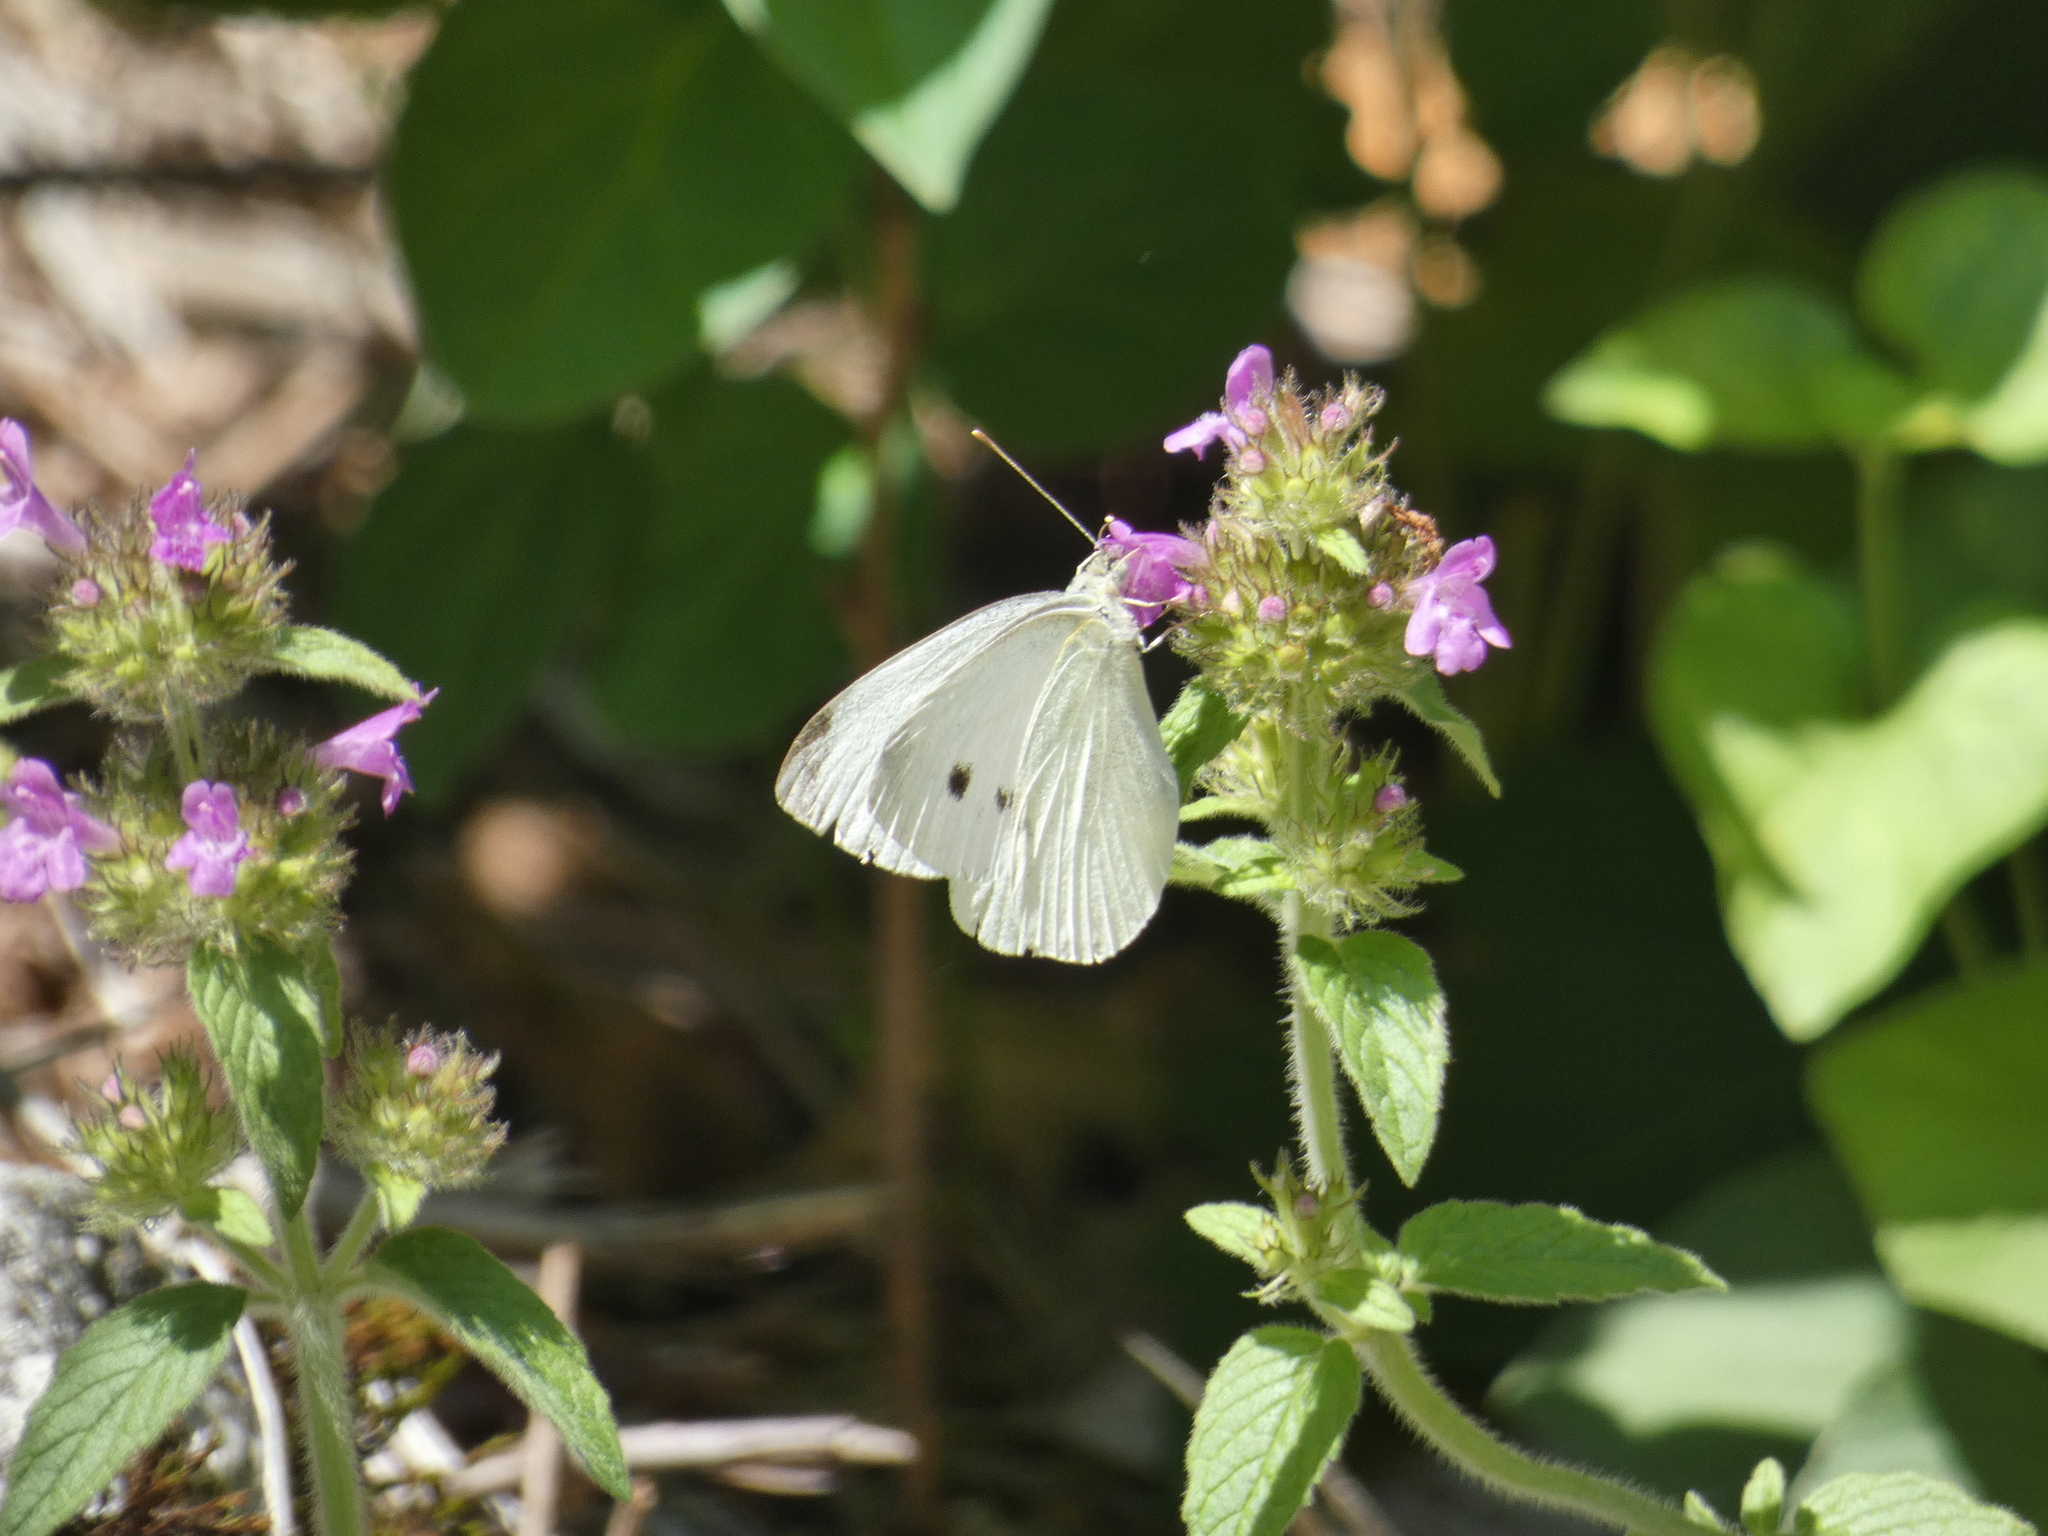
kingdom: Animalia
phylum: Arthropoda
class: Insecta
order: Lepidoptera
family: Pieridae
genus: Pieris
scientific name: Pieris rapae
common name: Small white
